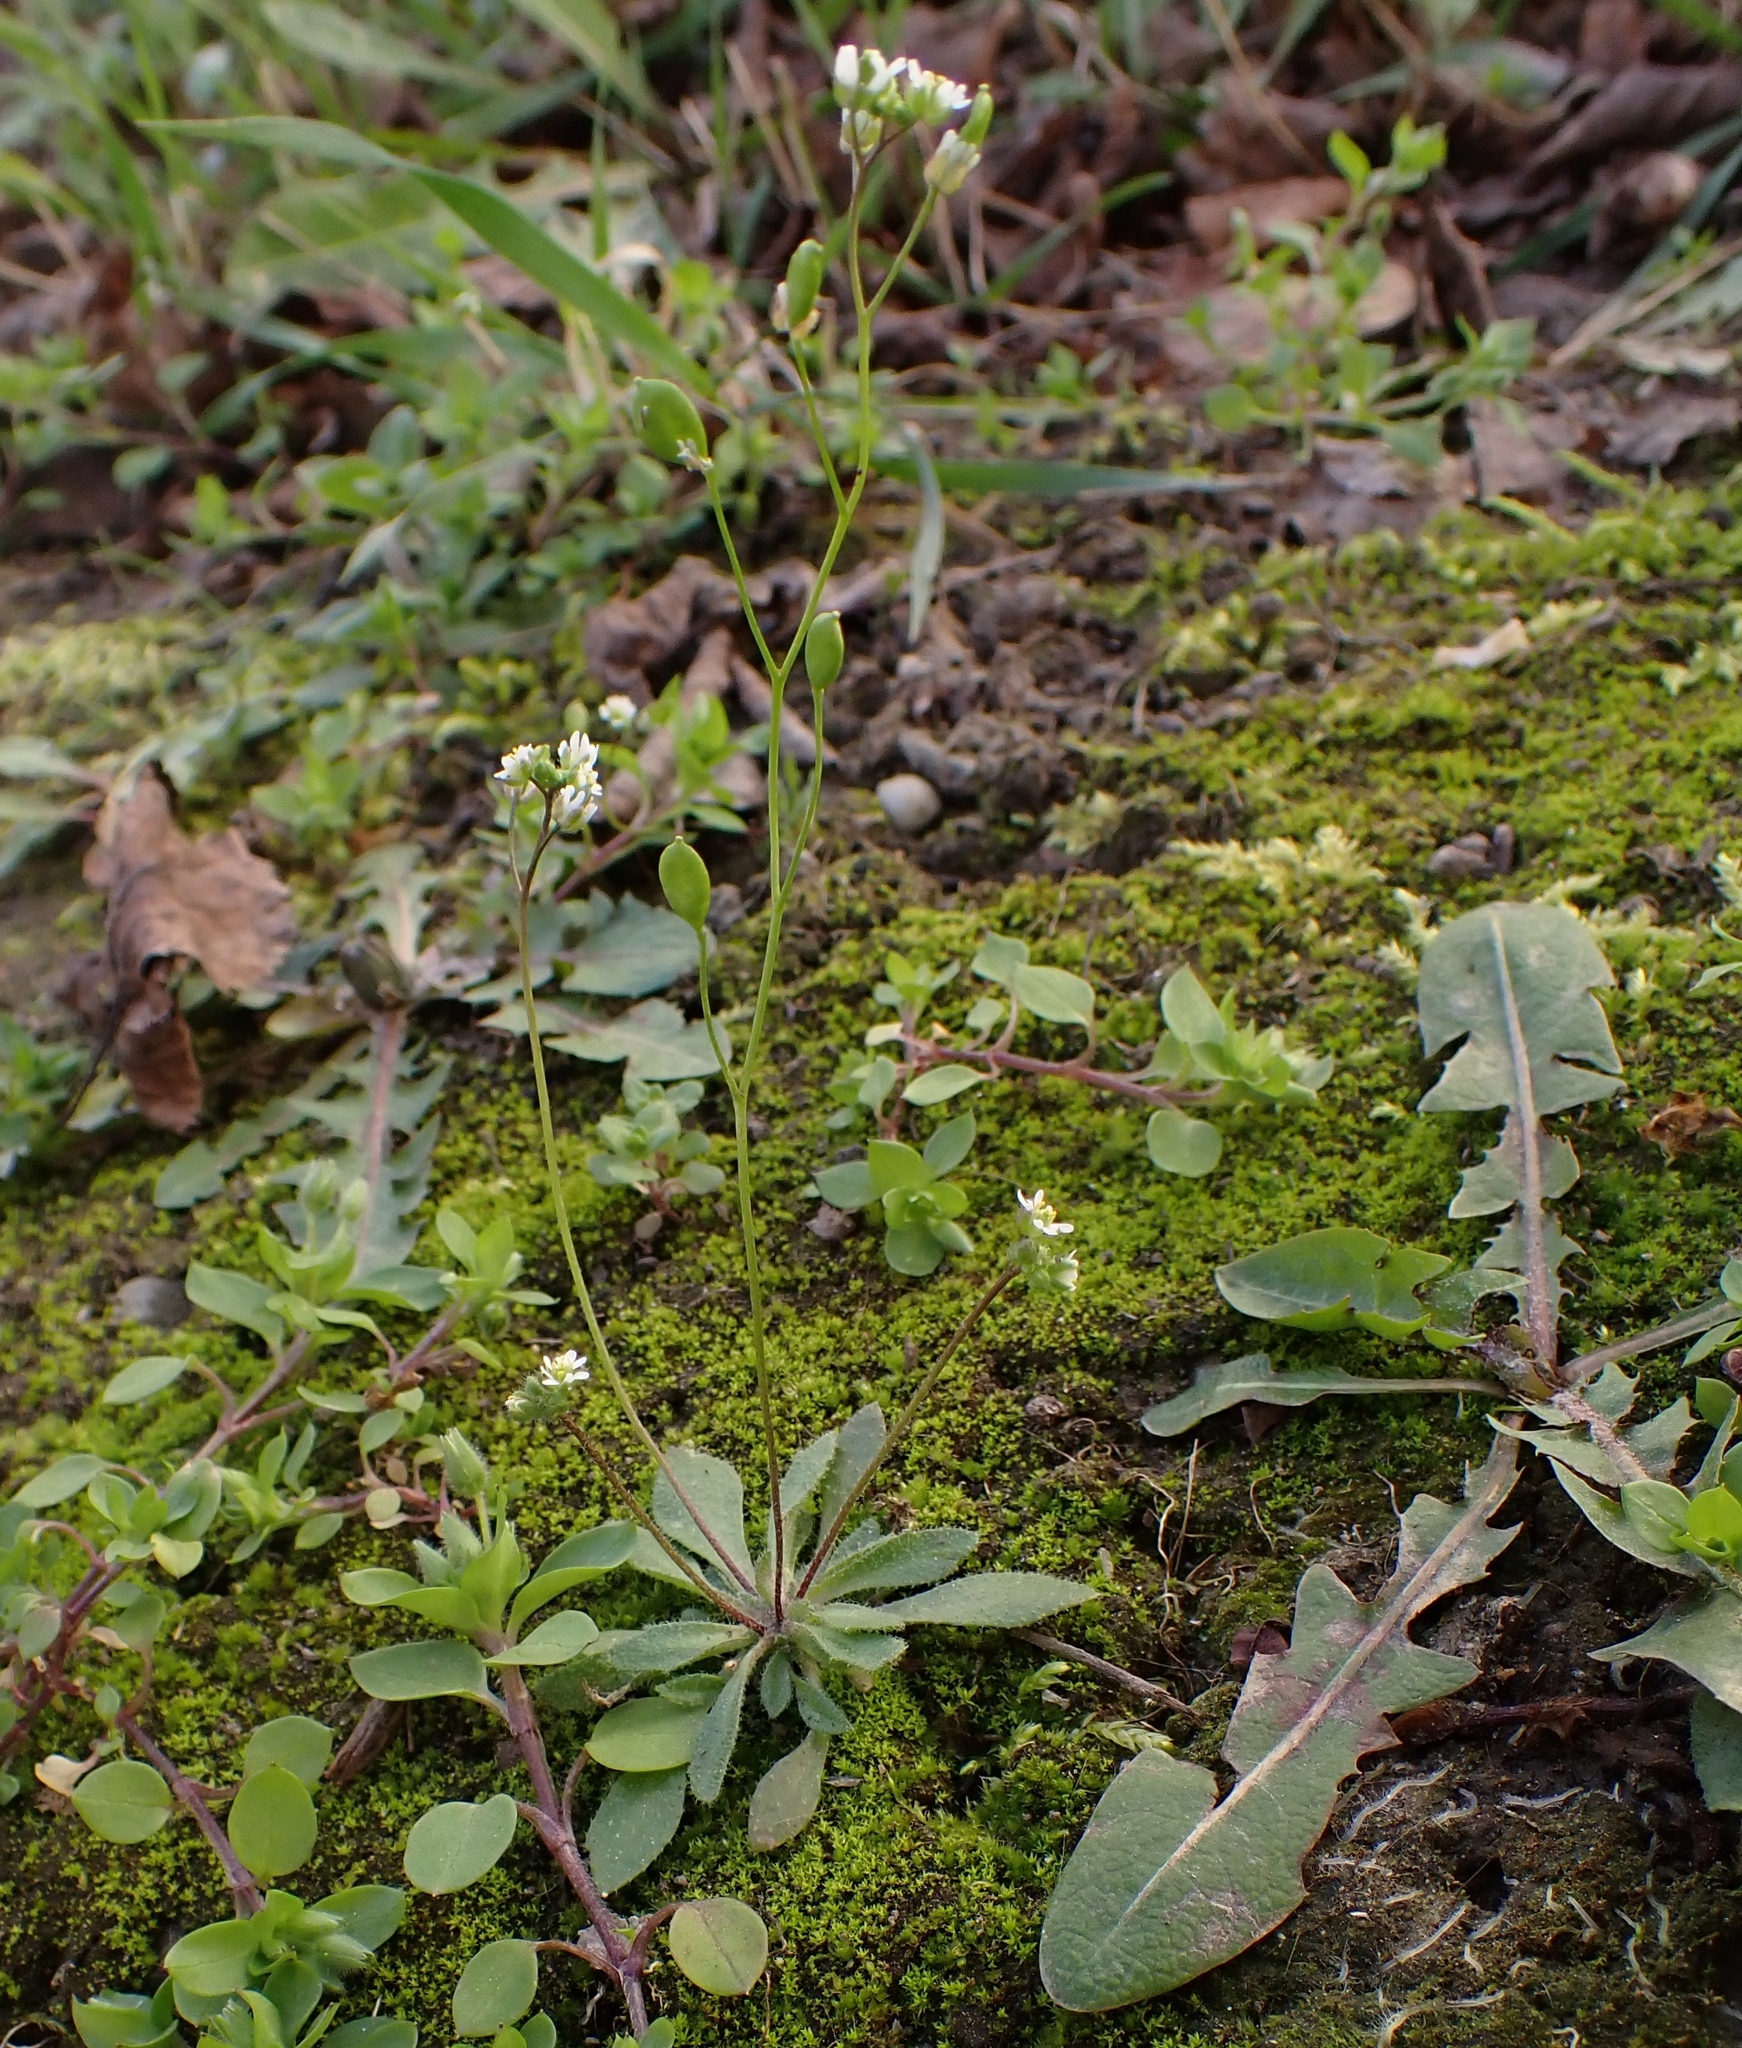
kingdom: Plantae
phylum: Tracheophyta
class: Magnoliopsida
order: Brassicales
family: Brassicaceae
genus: Draba
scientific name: Draba verna
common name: Spring draba
